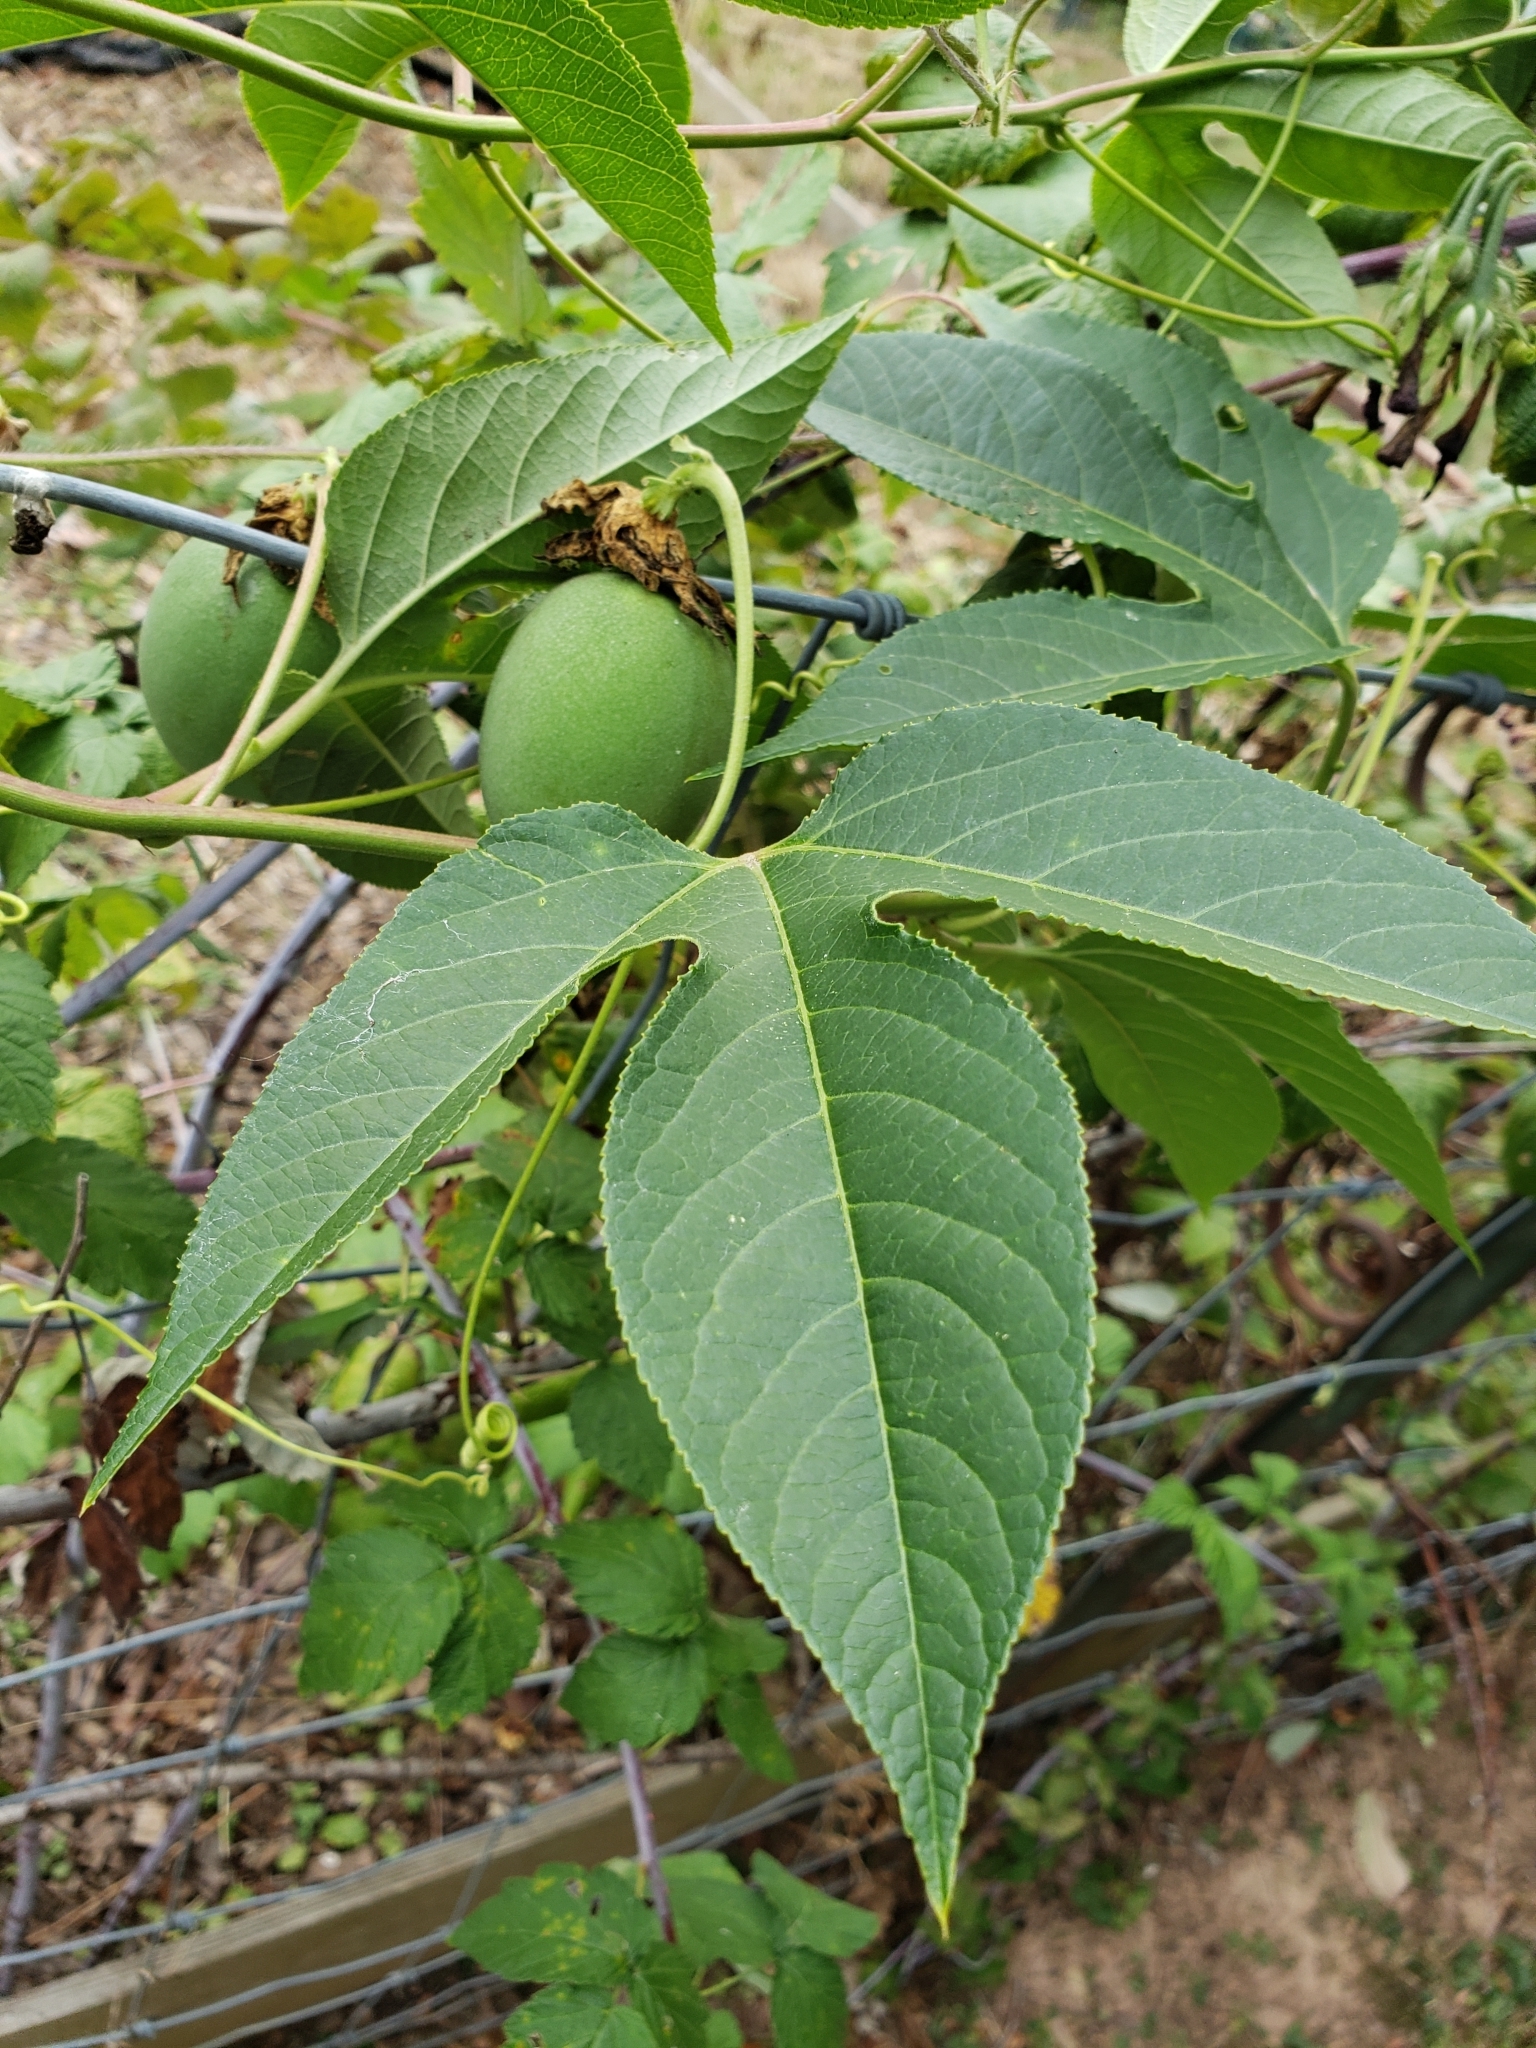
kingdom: Plantae
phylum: Tracheophyta
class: Magnoliopsida
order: Malpighiales
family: Passifloraceae
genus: Passiflora
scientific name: Passiflora incarnata
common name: Apricot-vine
